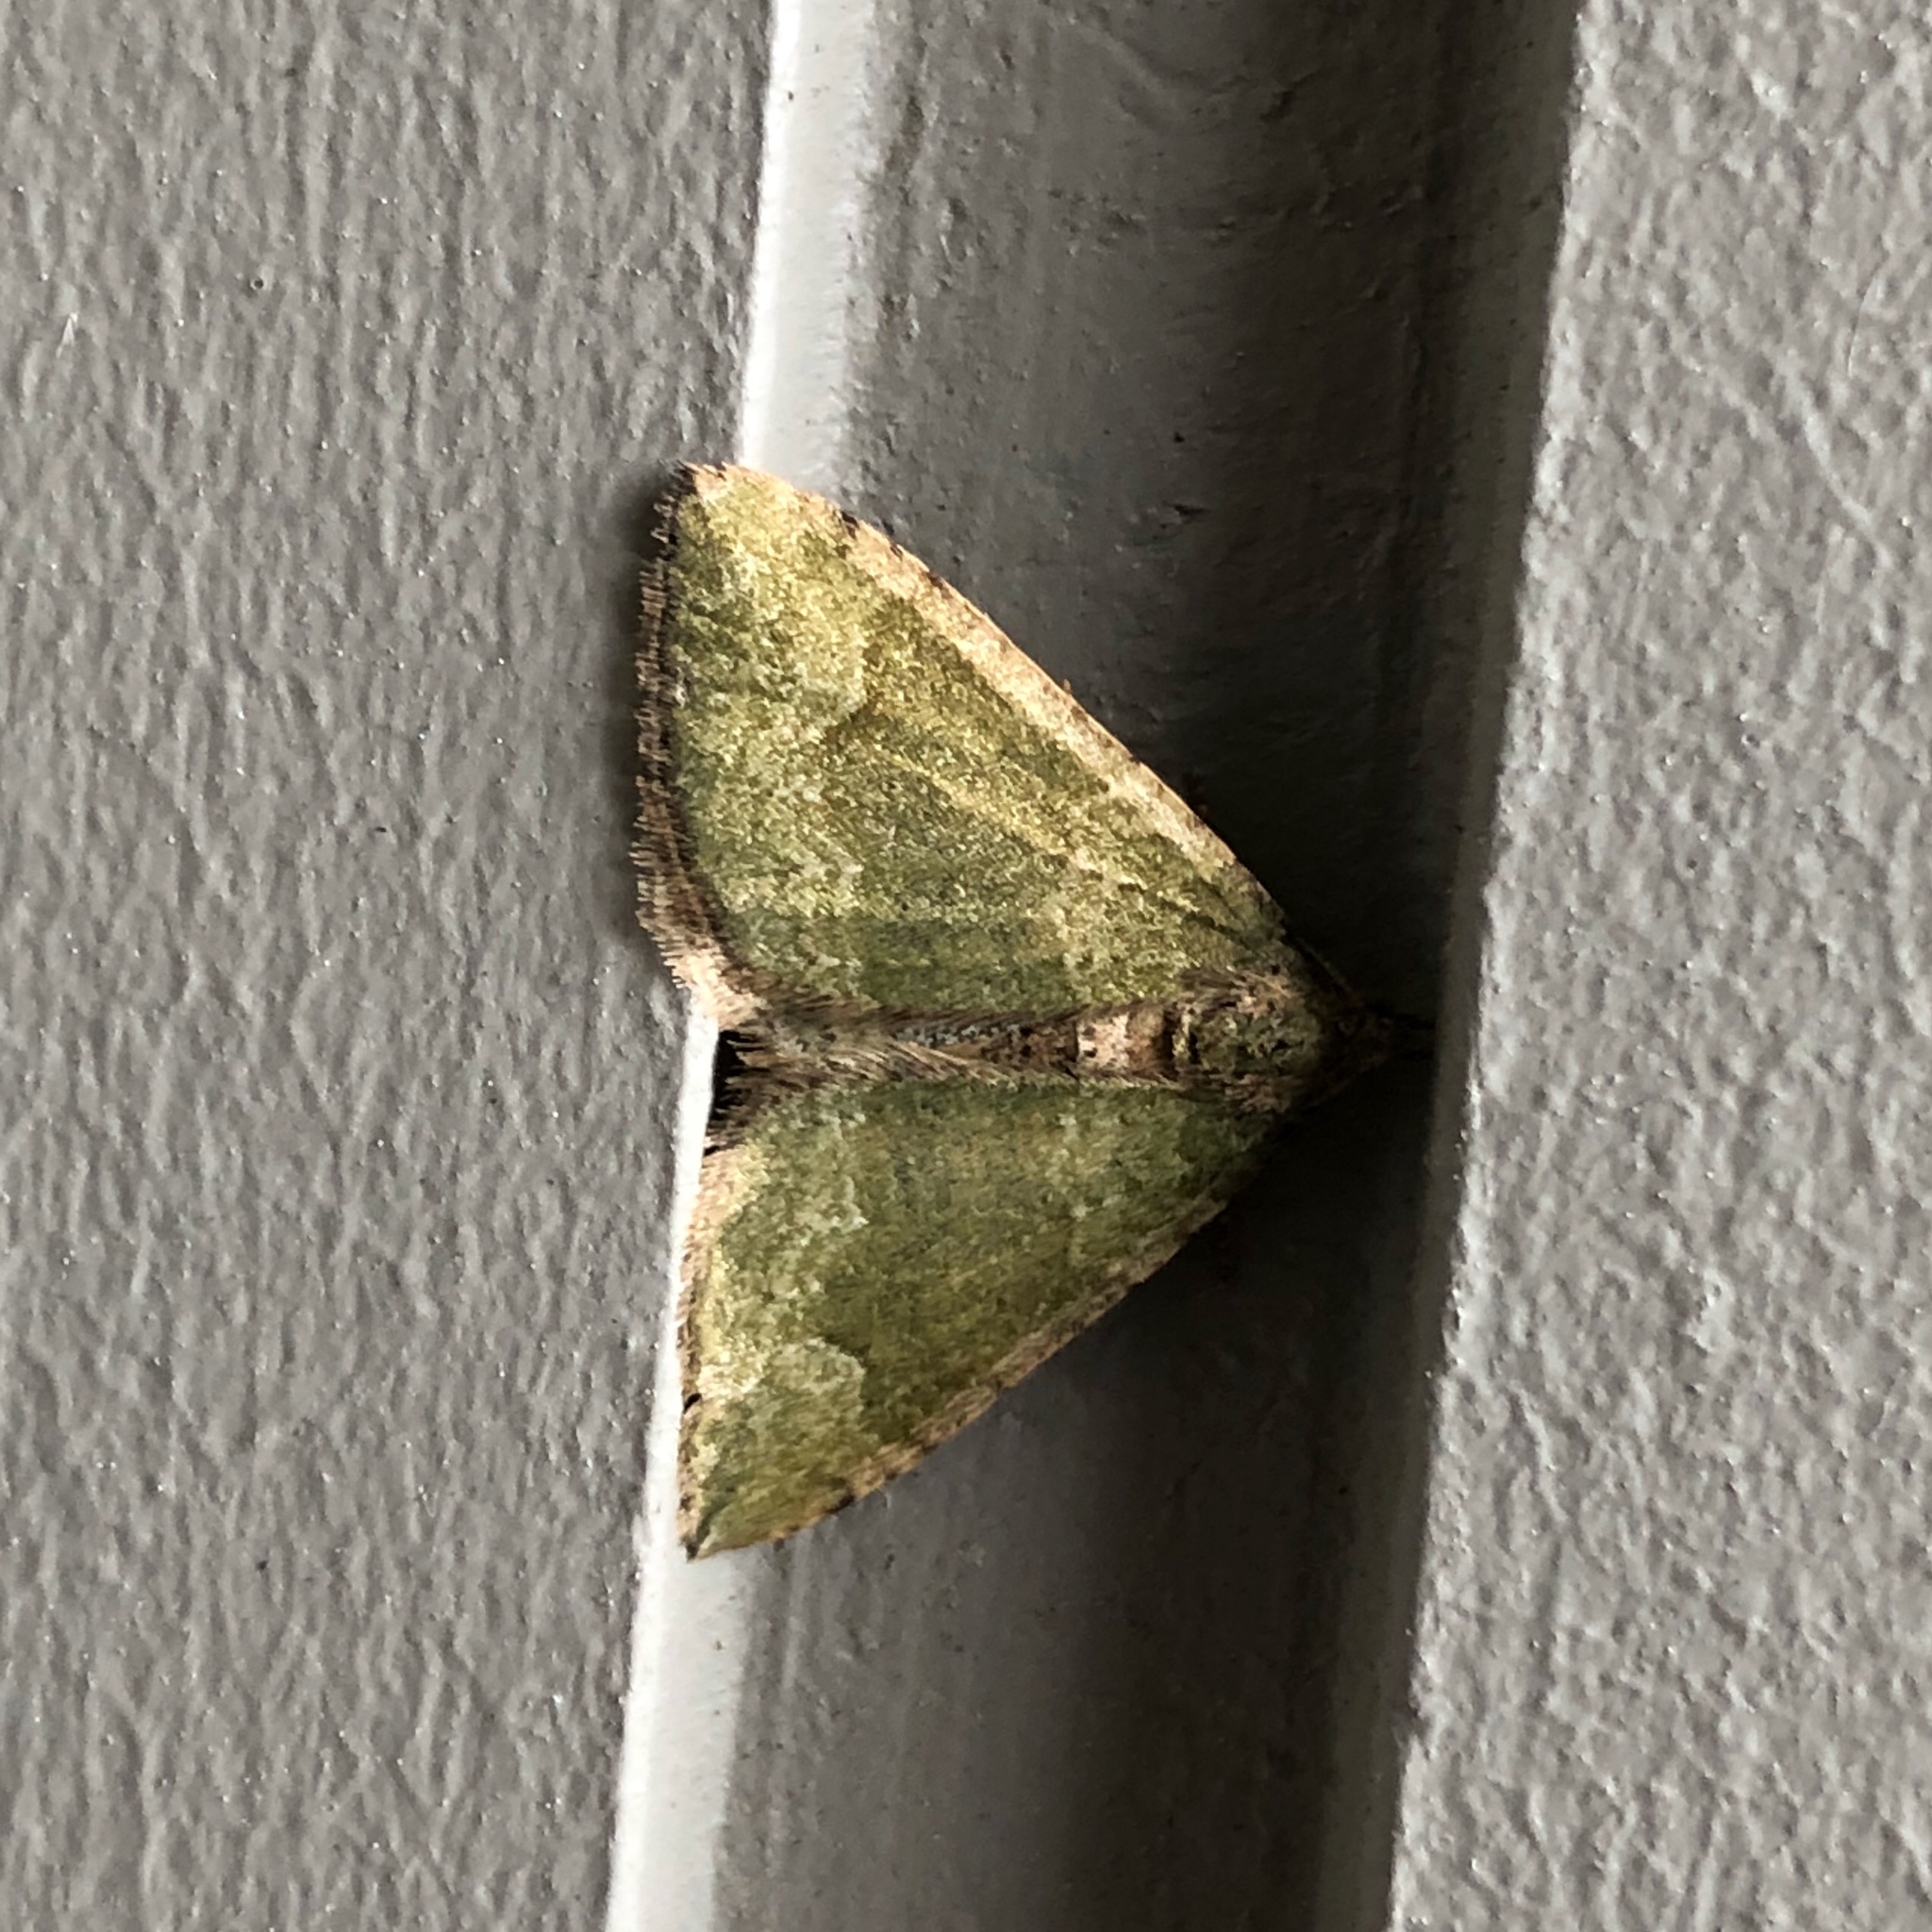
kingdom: Animalia
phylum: Arthropoda
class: Insecta
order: Lepidoptera
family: Geometridae
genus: Epyaxa
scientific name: Epyaxa rosearia
